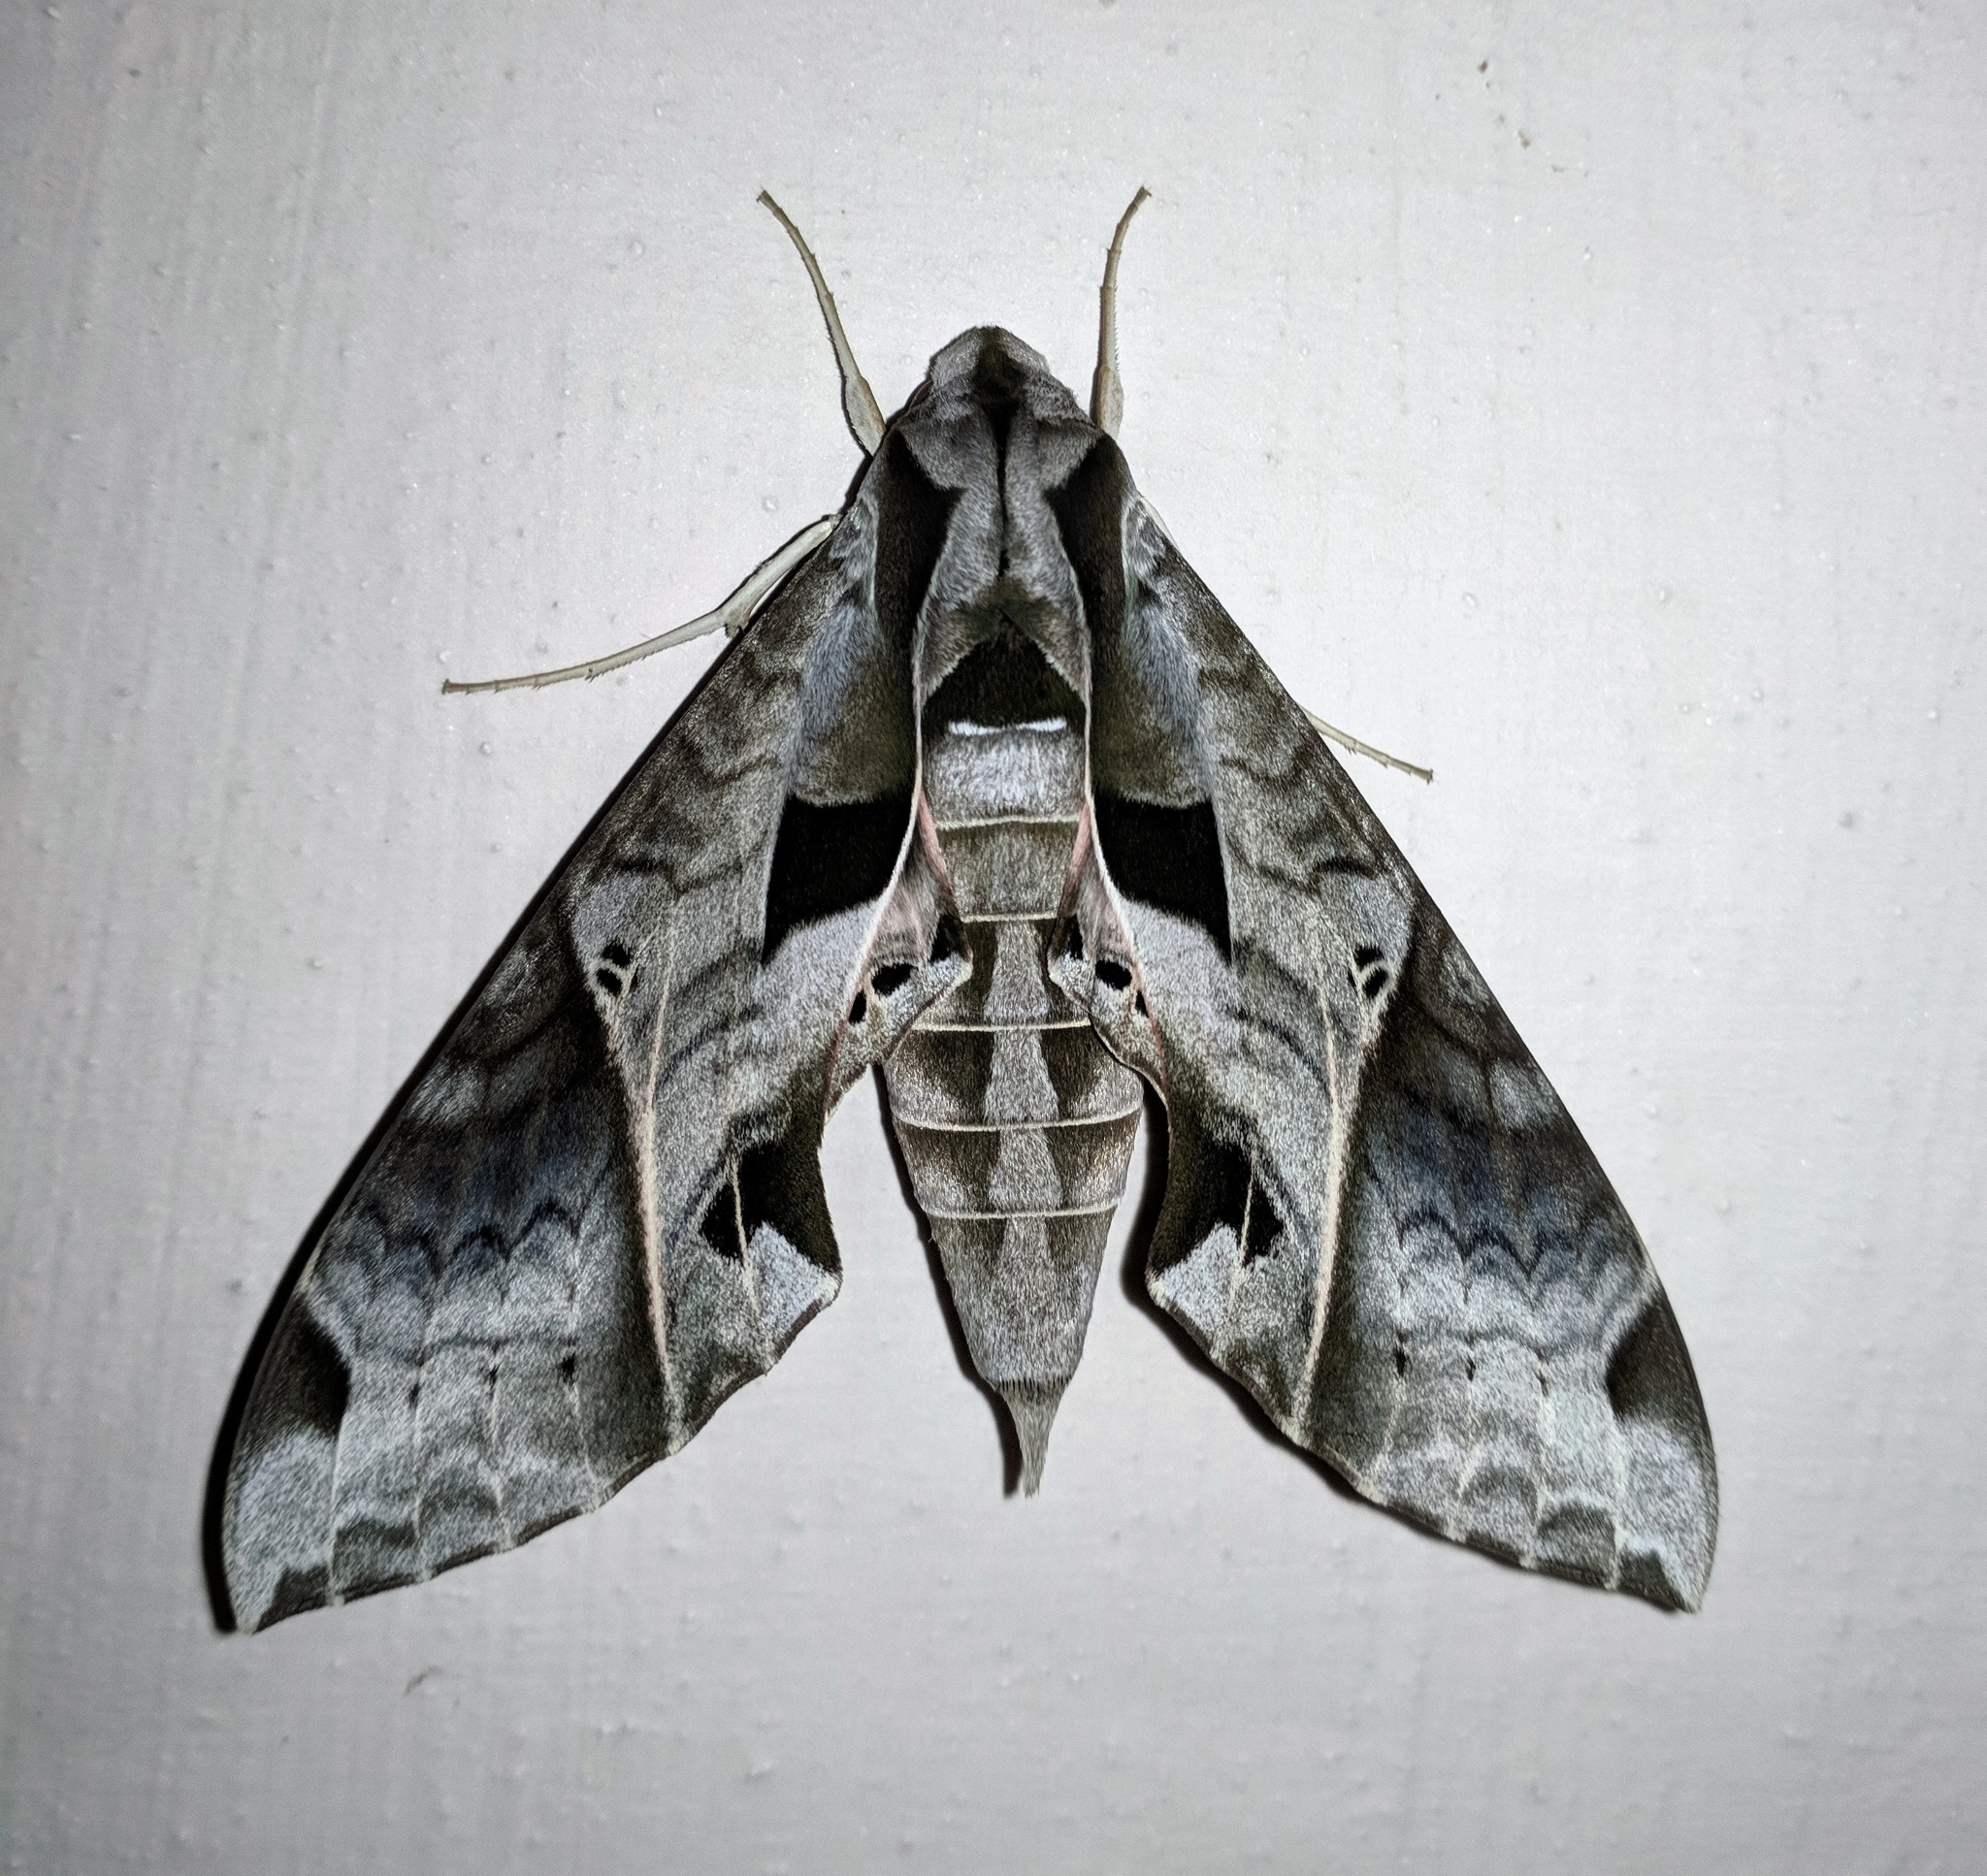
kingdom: Animalia
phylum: Arthropoda
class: Insecta
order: Lepidoptera
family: Sphingidae
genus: Eumorpha
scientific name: Eumorpha analis
